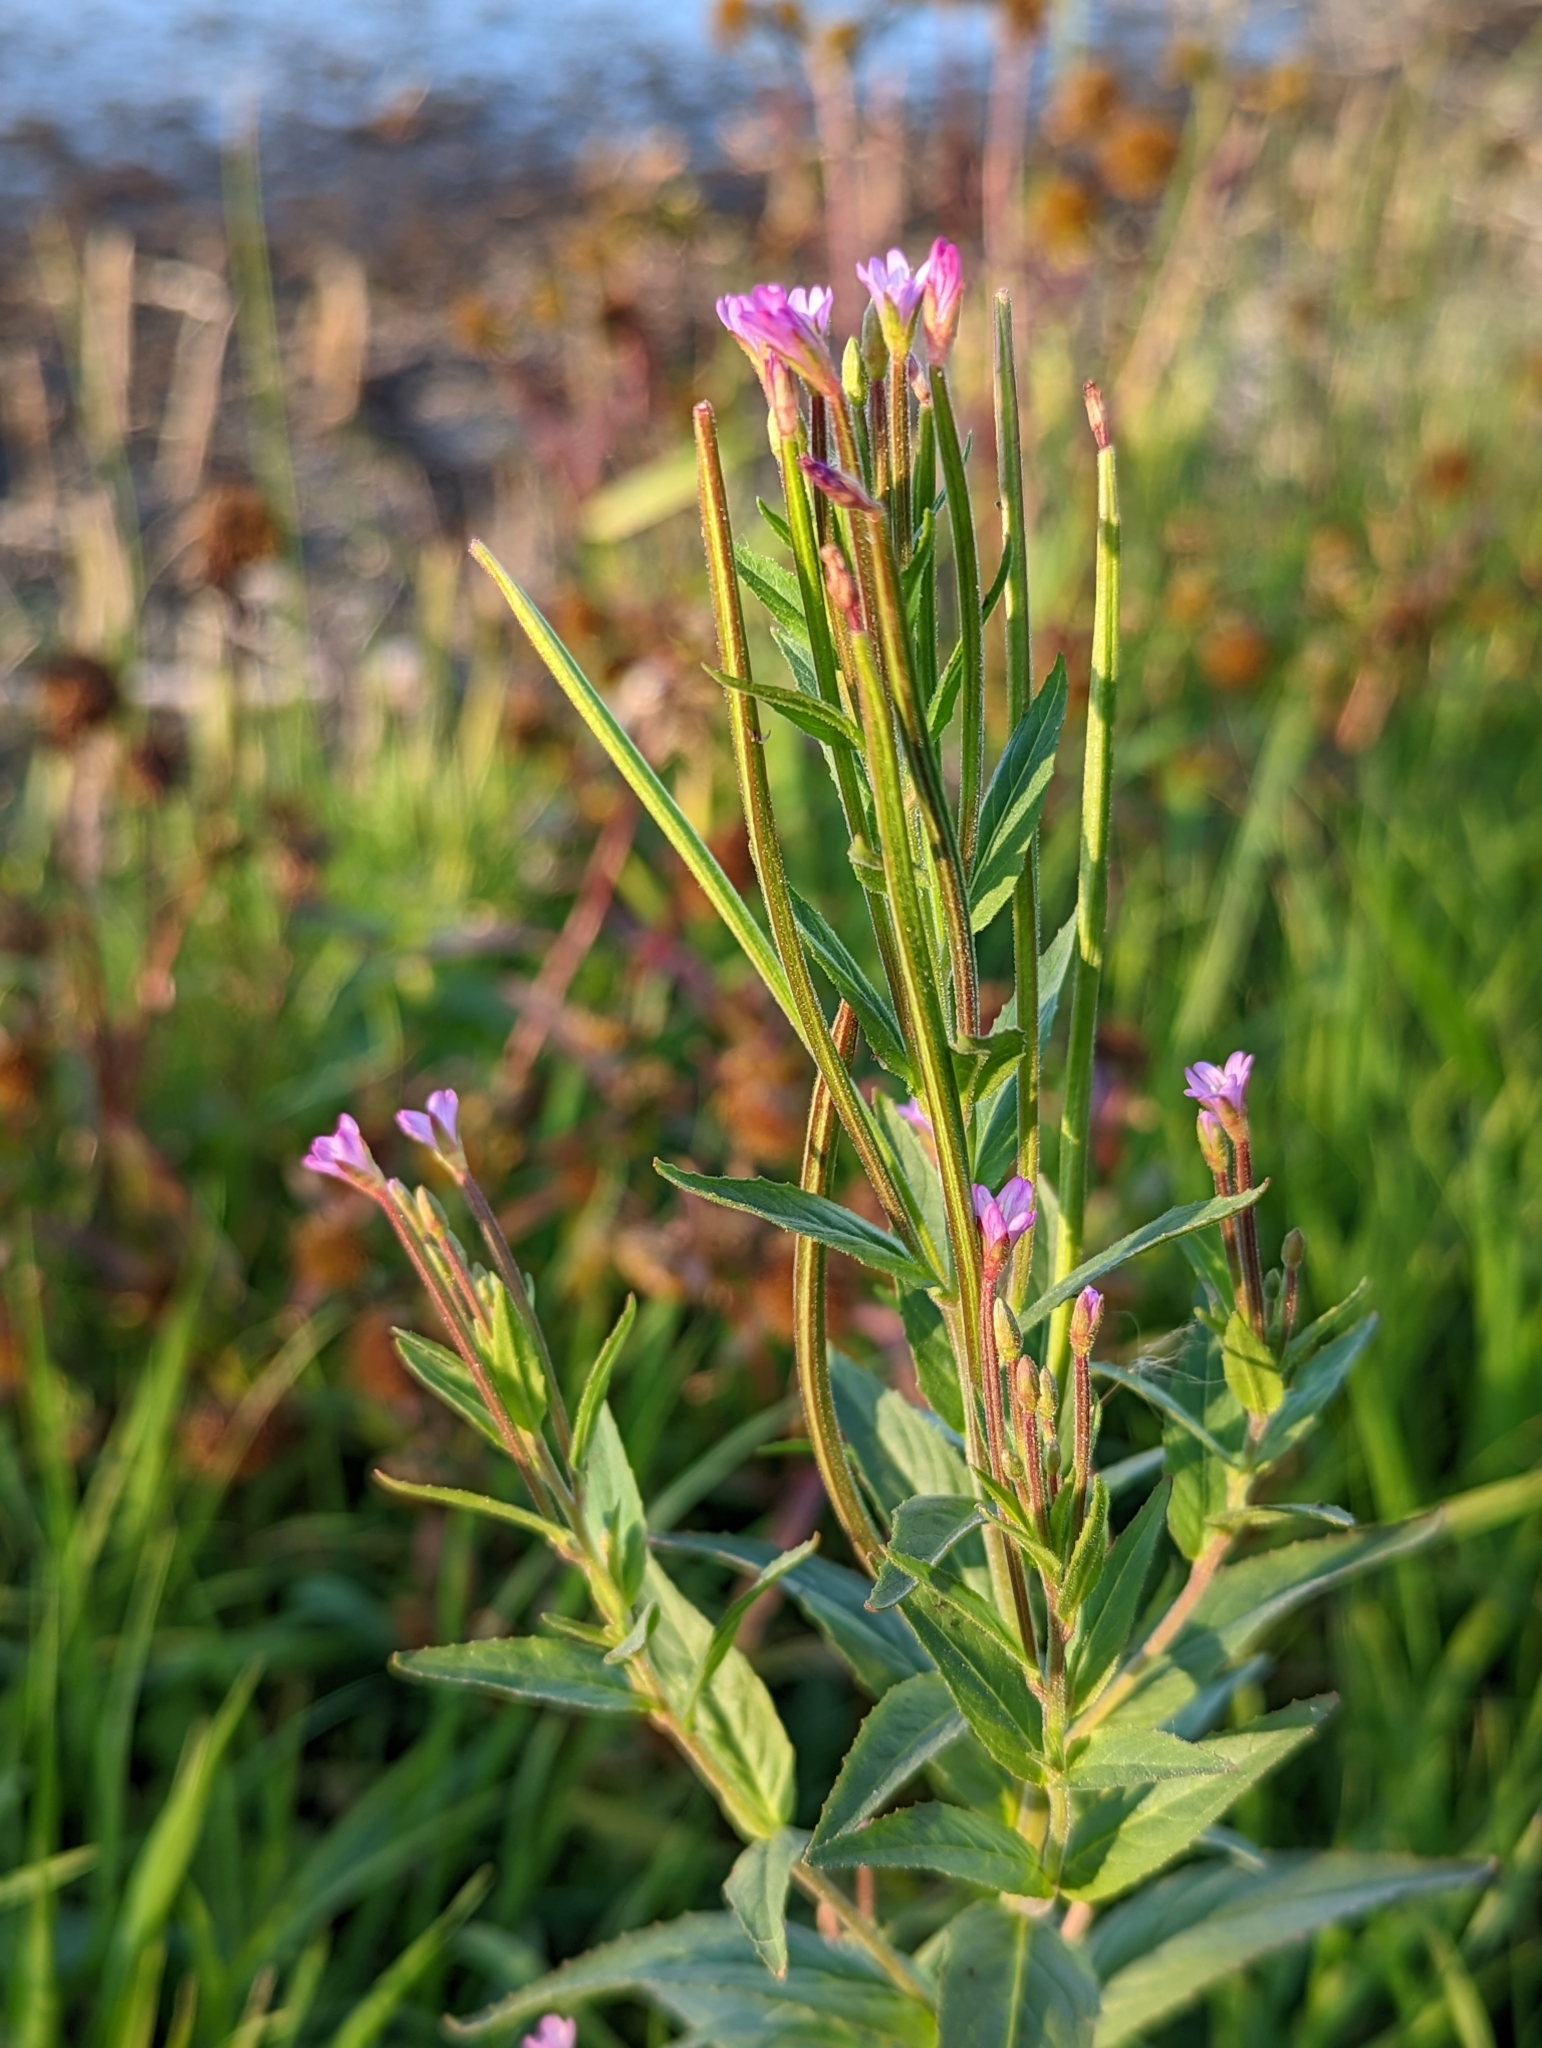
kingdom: Plantae
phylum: Tracheophyta
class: Magnoliopsida
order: Myrtales
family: Onagraceae
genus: Epilobium
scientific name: Epilobium ciliatum
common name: American willowherb
